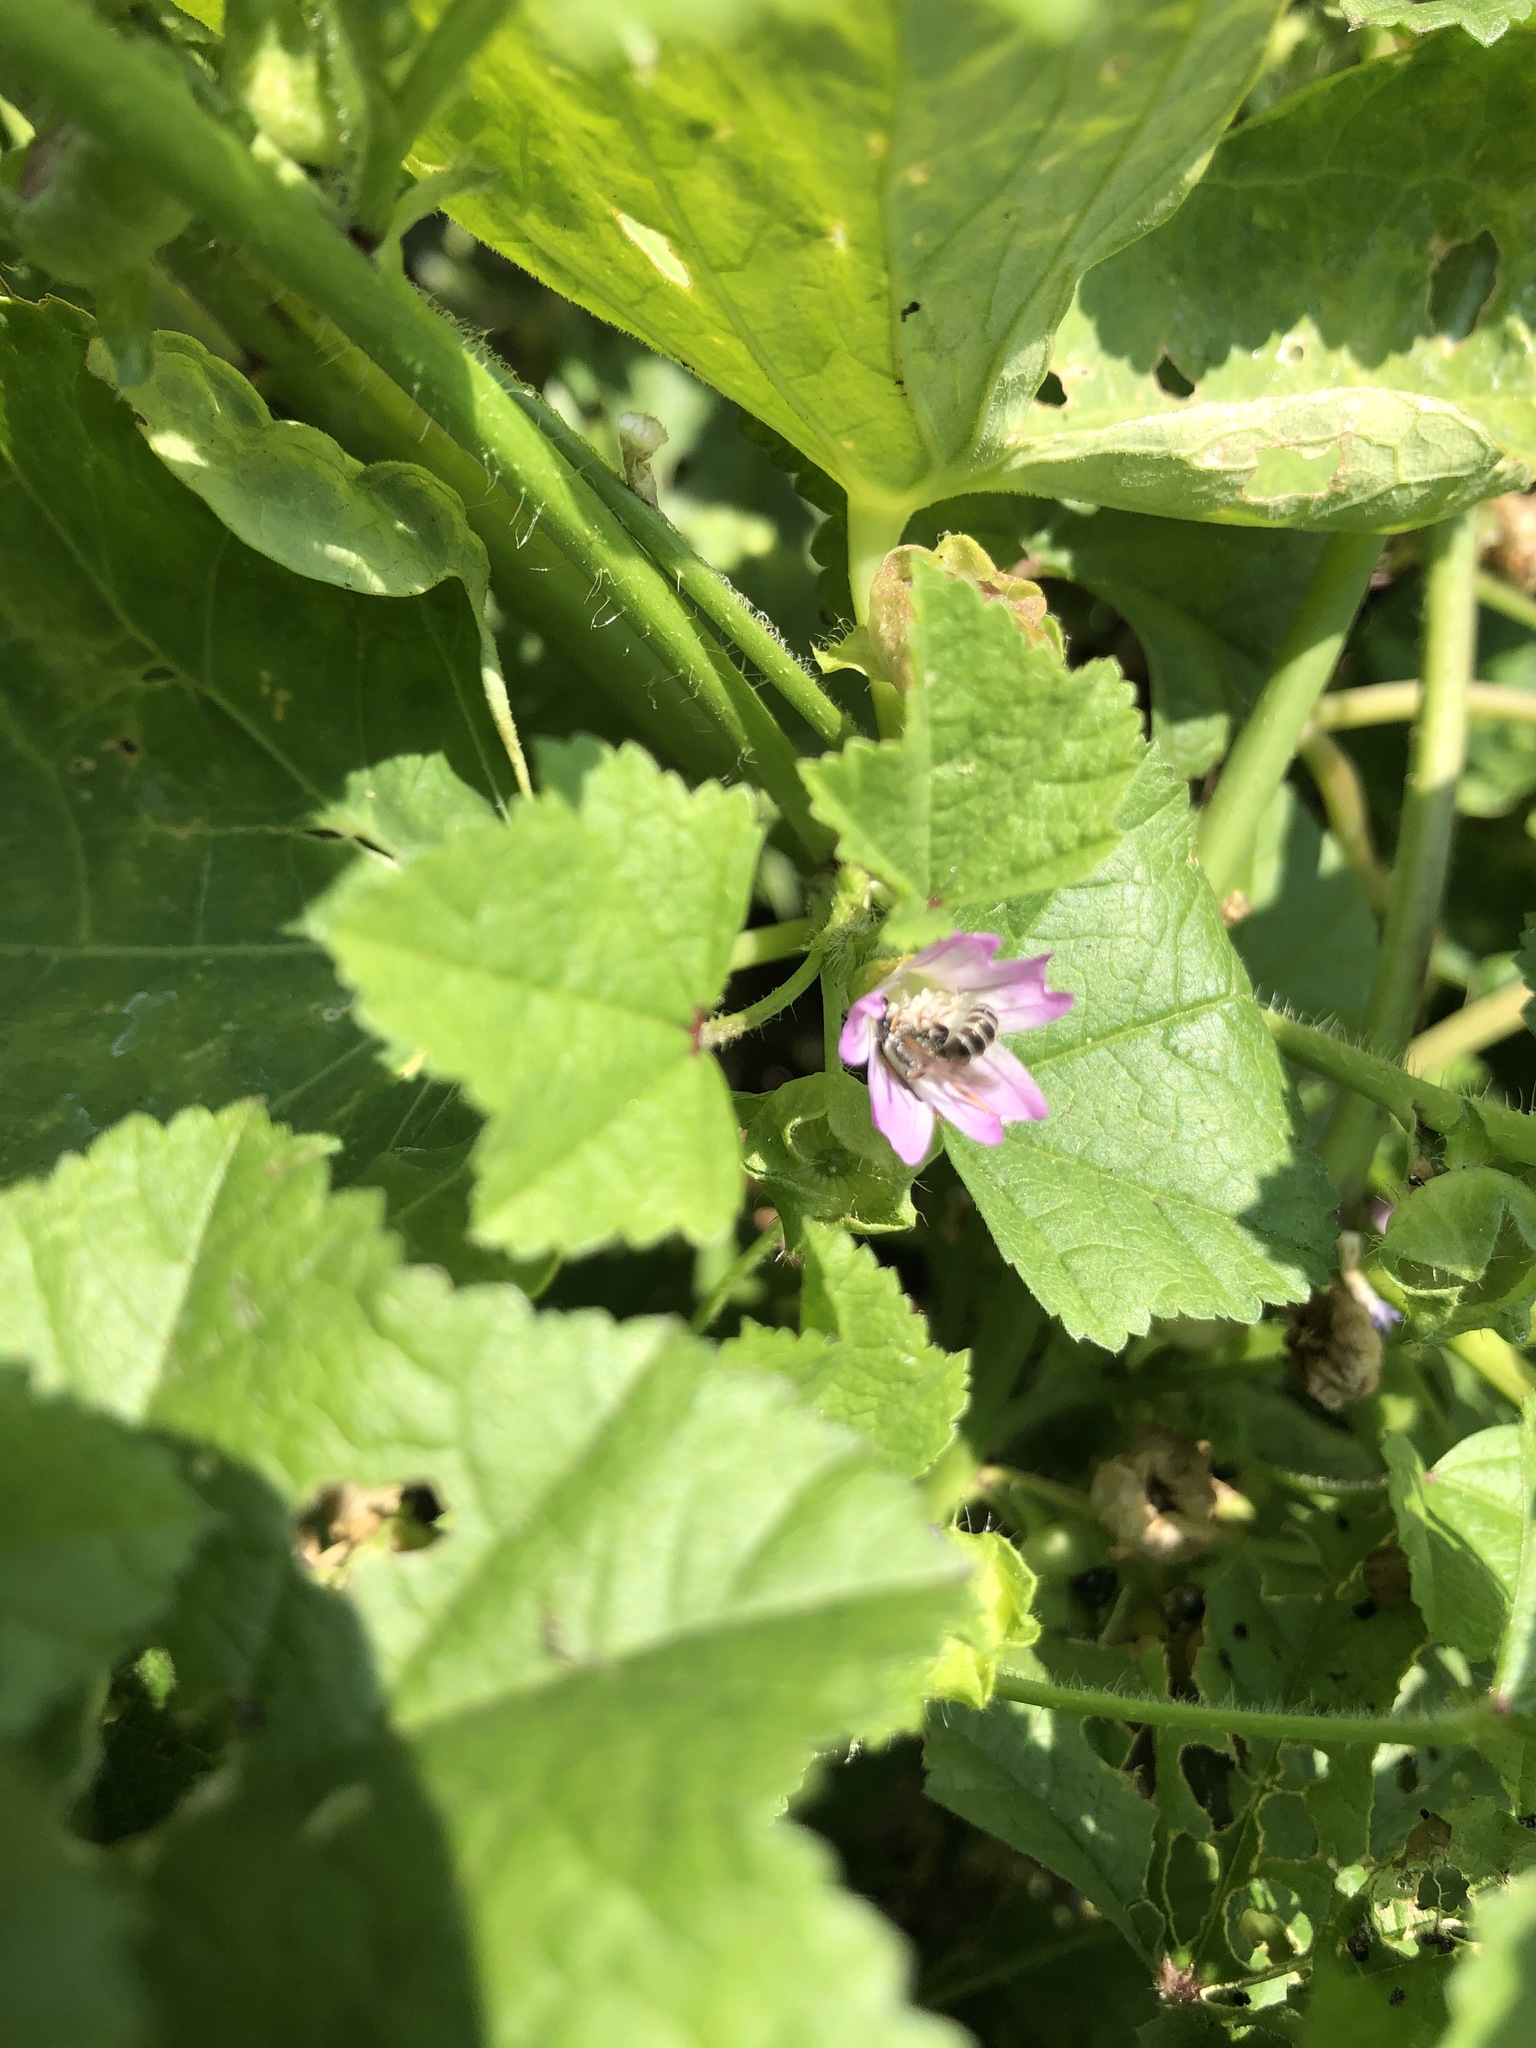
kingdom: Plantae
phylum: Tracheophyta
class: Magnoliopsida
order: Malvales
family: Malvaceae
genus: Malva
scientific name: Malva nicaeensis
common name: French mallow
